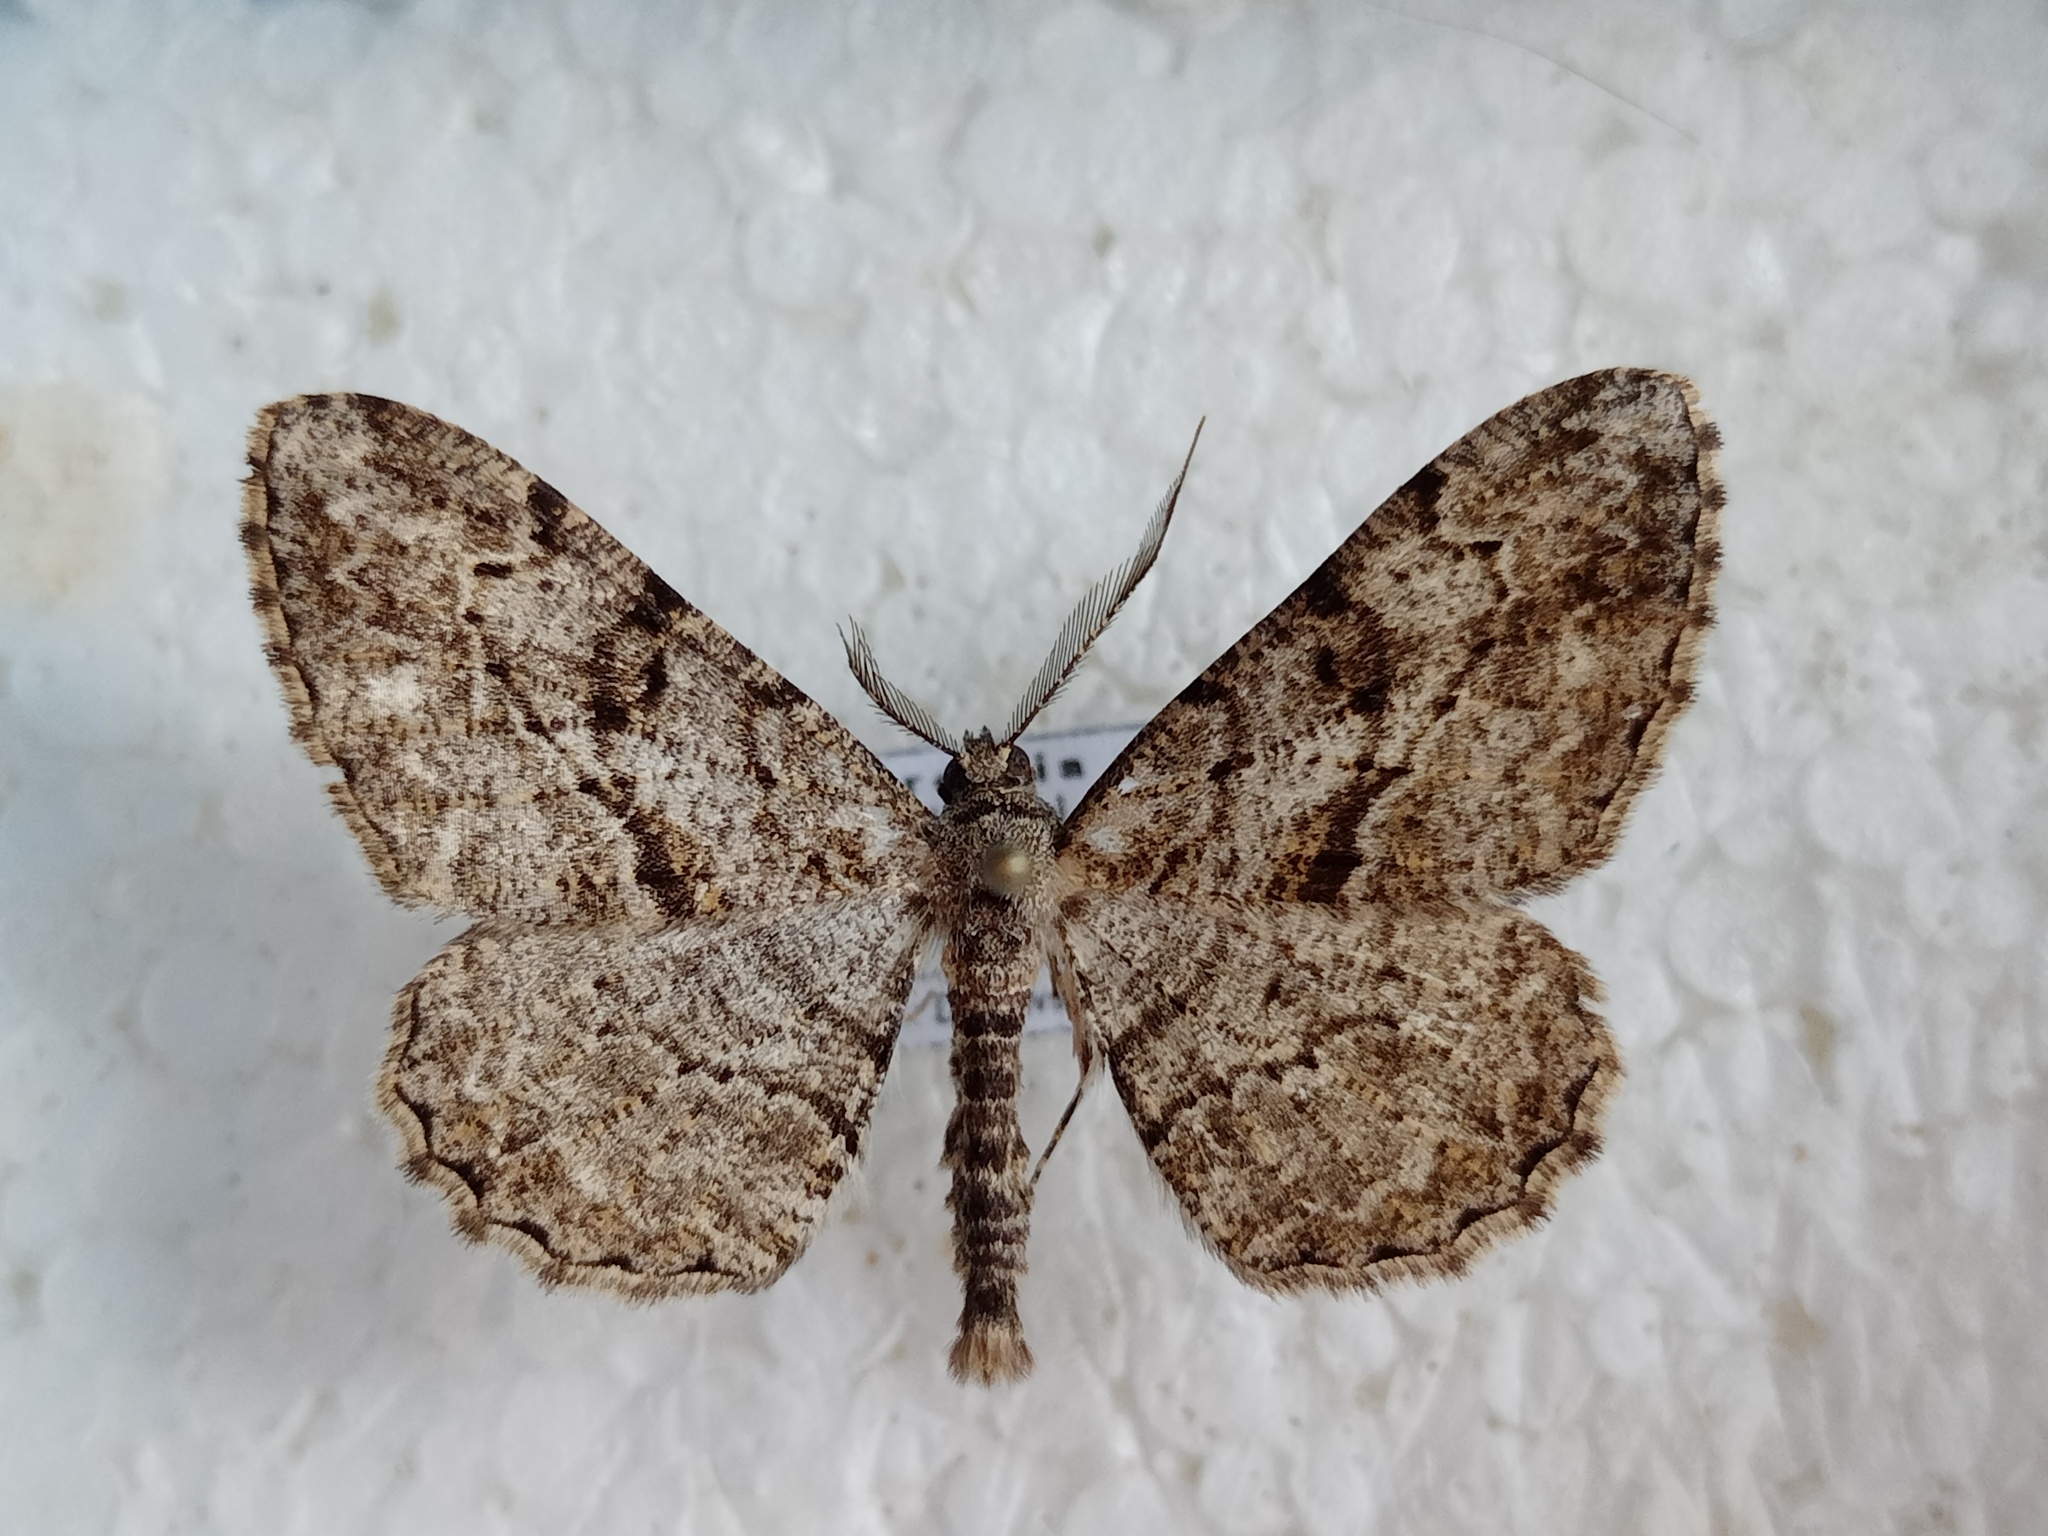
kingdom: Animalia
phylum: Arthropoda
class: Insecta
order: Lepidoptera
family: Geometridae
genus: Peribatodes
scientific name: Peribatodes rhomboidaria
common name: Willow beauty
